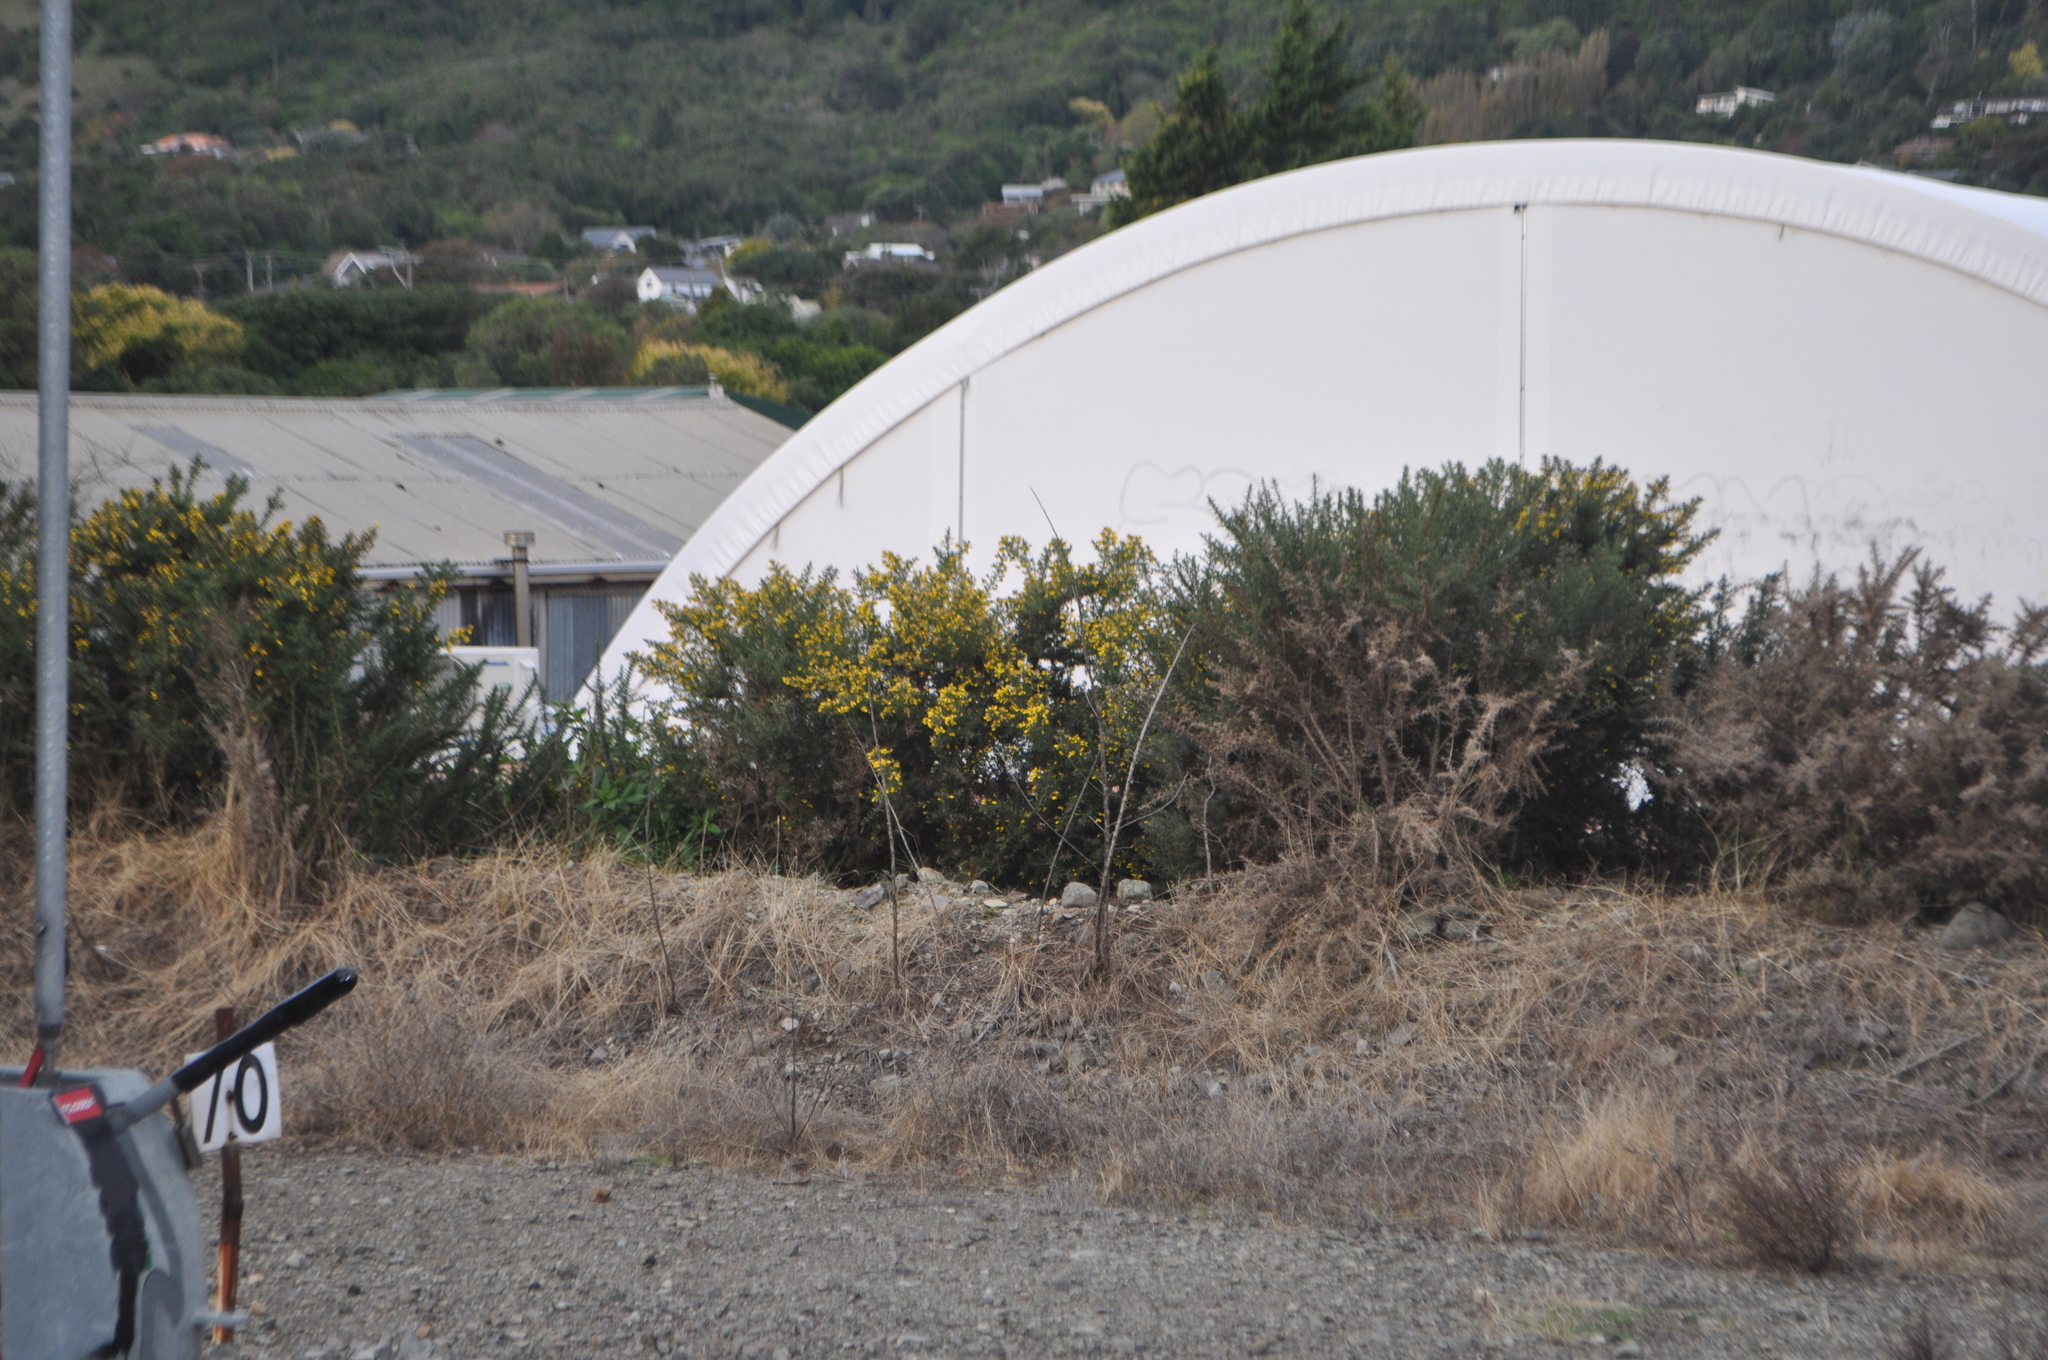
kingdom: Plantae
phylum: Tracheophyta
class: Magnoliopsida
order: Fabales
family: Fabaceae
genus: Ulex
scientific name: Ulex europaeus
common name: Common gorse
